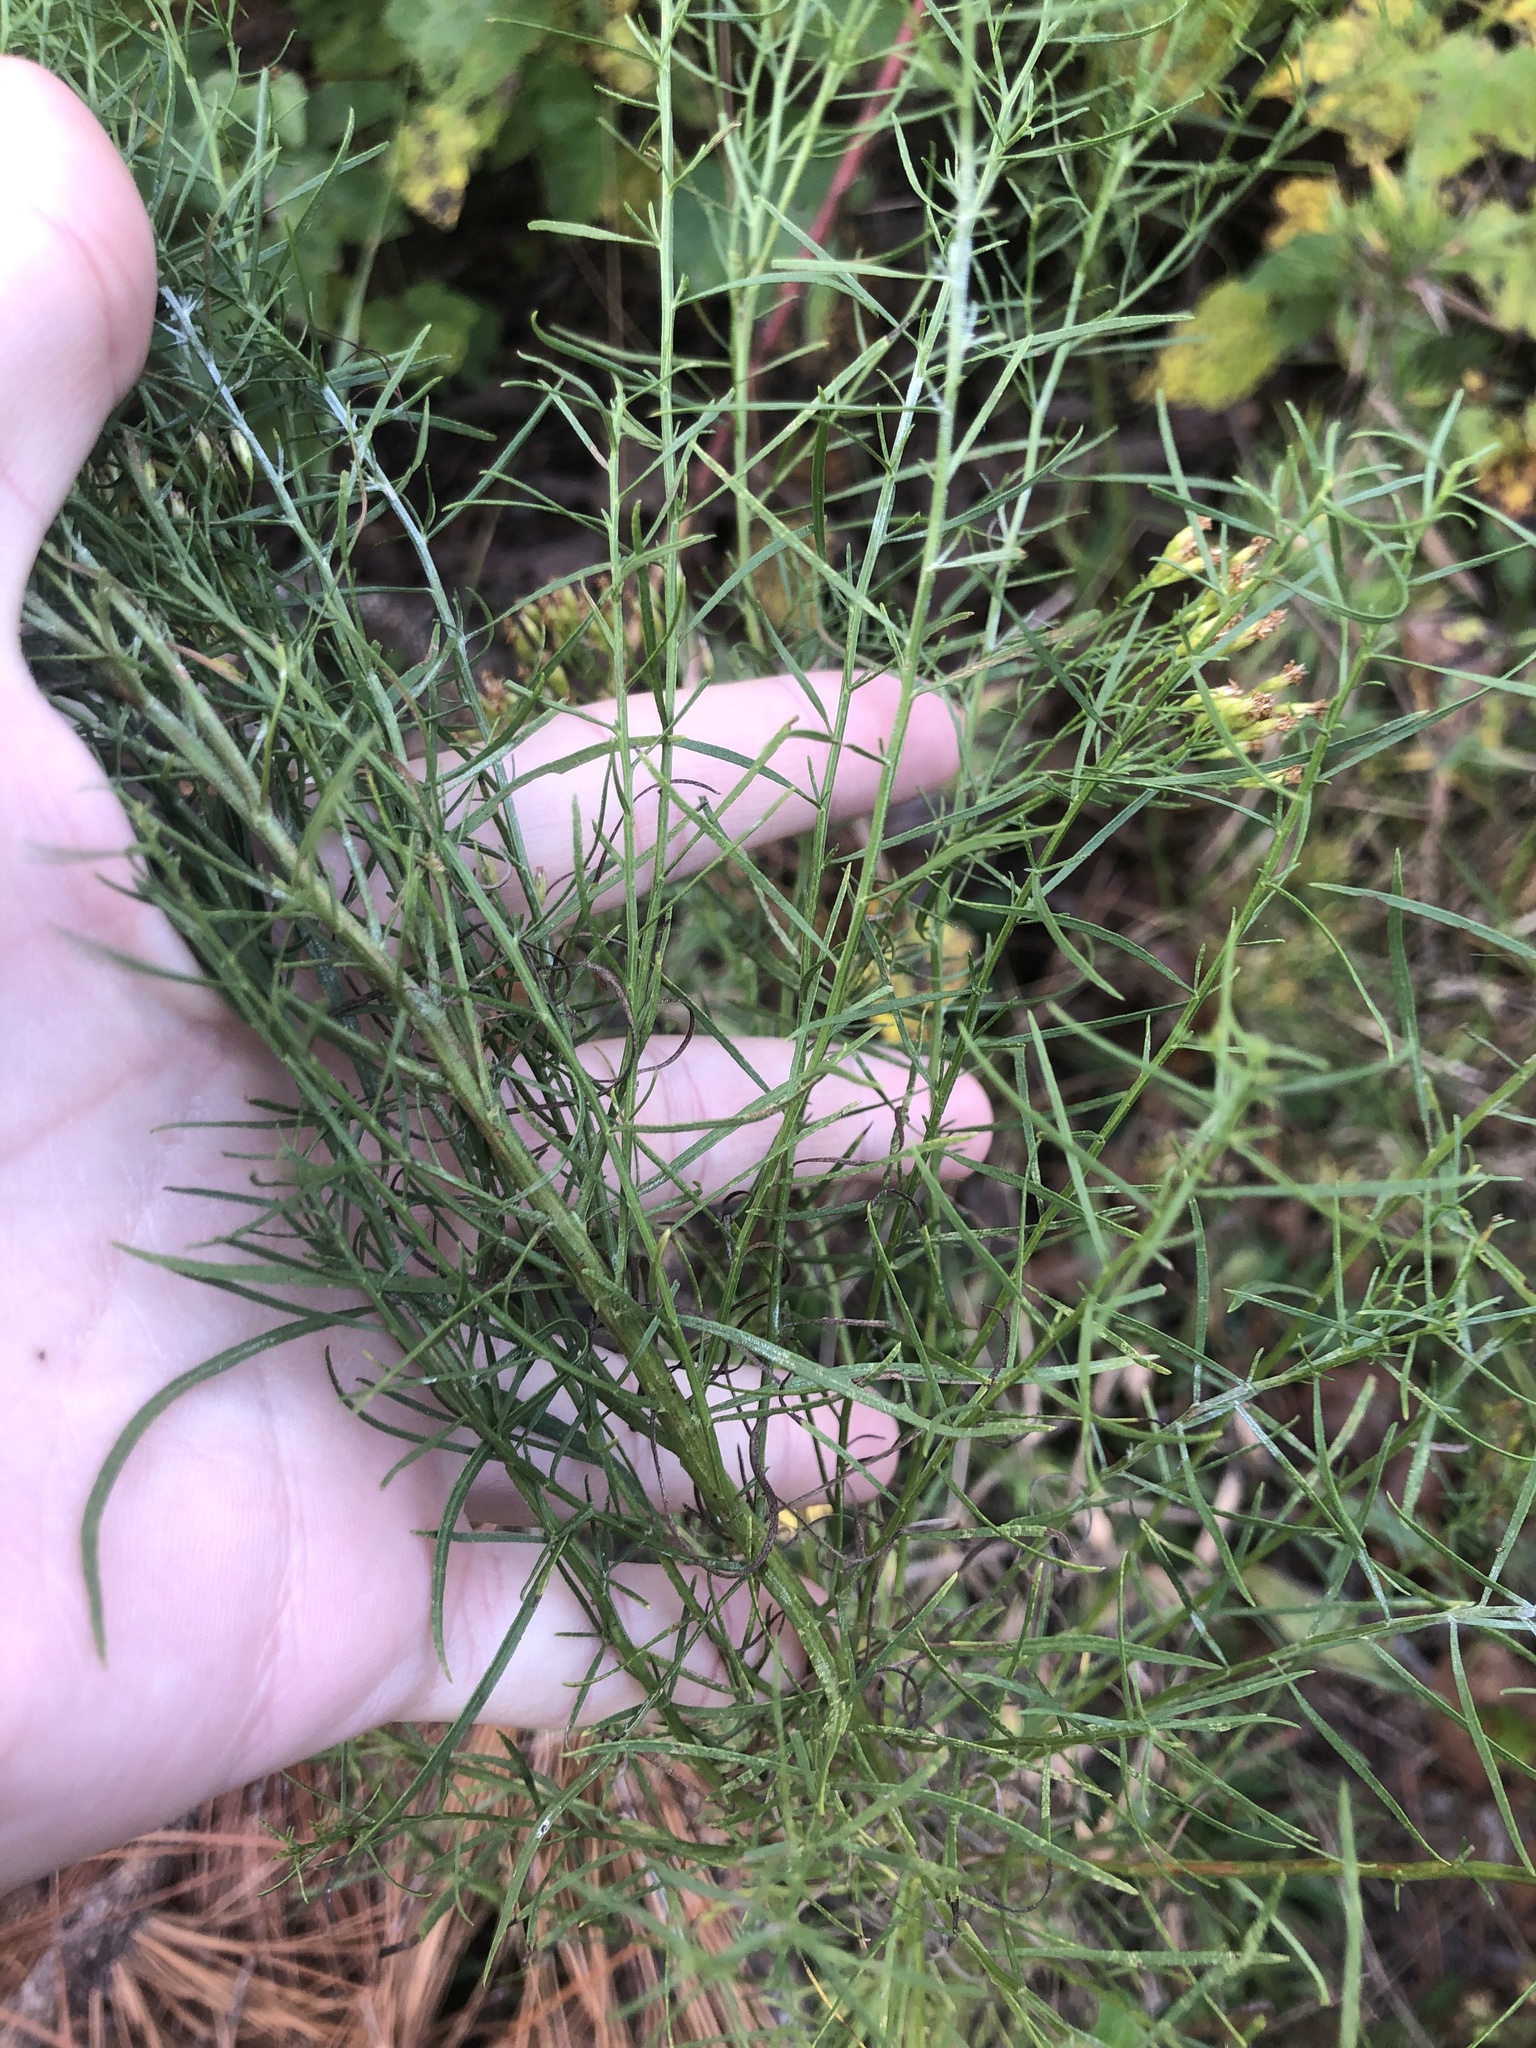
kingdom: Plantae
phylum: Tracheophyta
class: Magnoliopsida
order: Asterales
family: Asteraceae
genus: Euthamia
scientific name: Euthamia caroliniana
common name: Coastal plain goldentop
